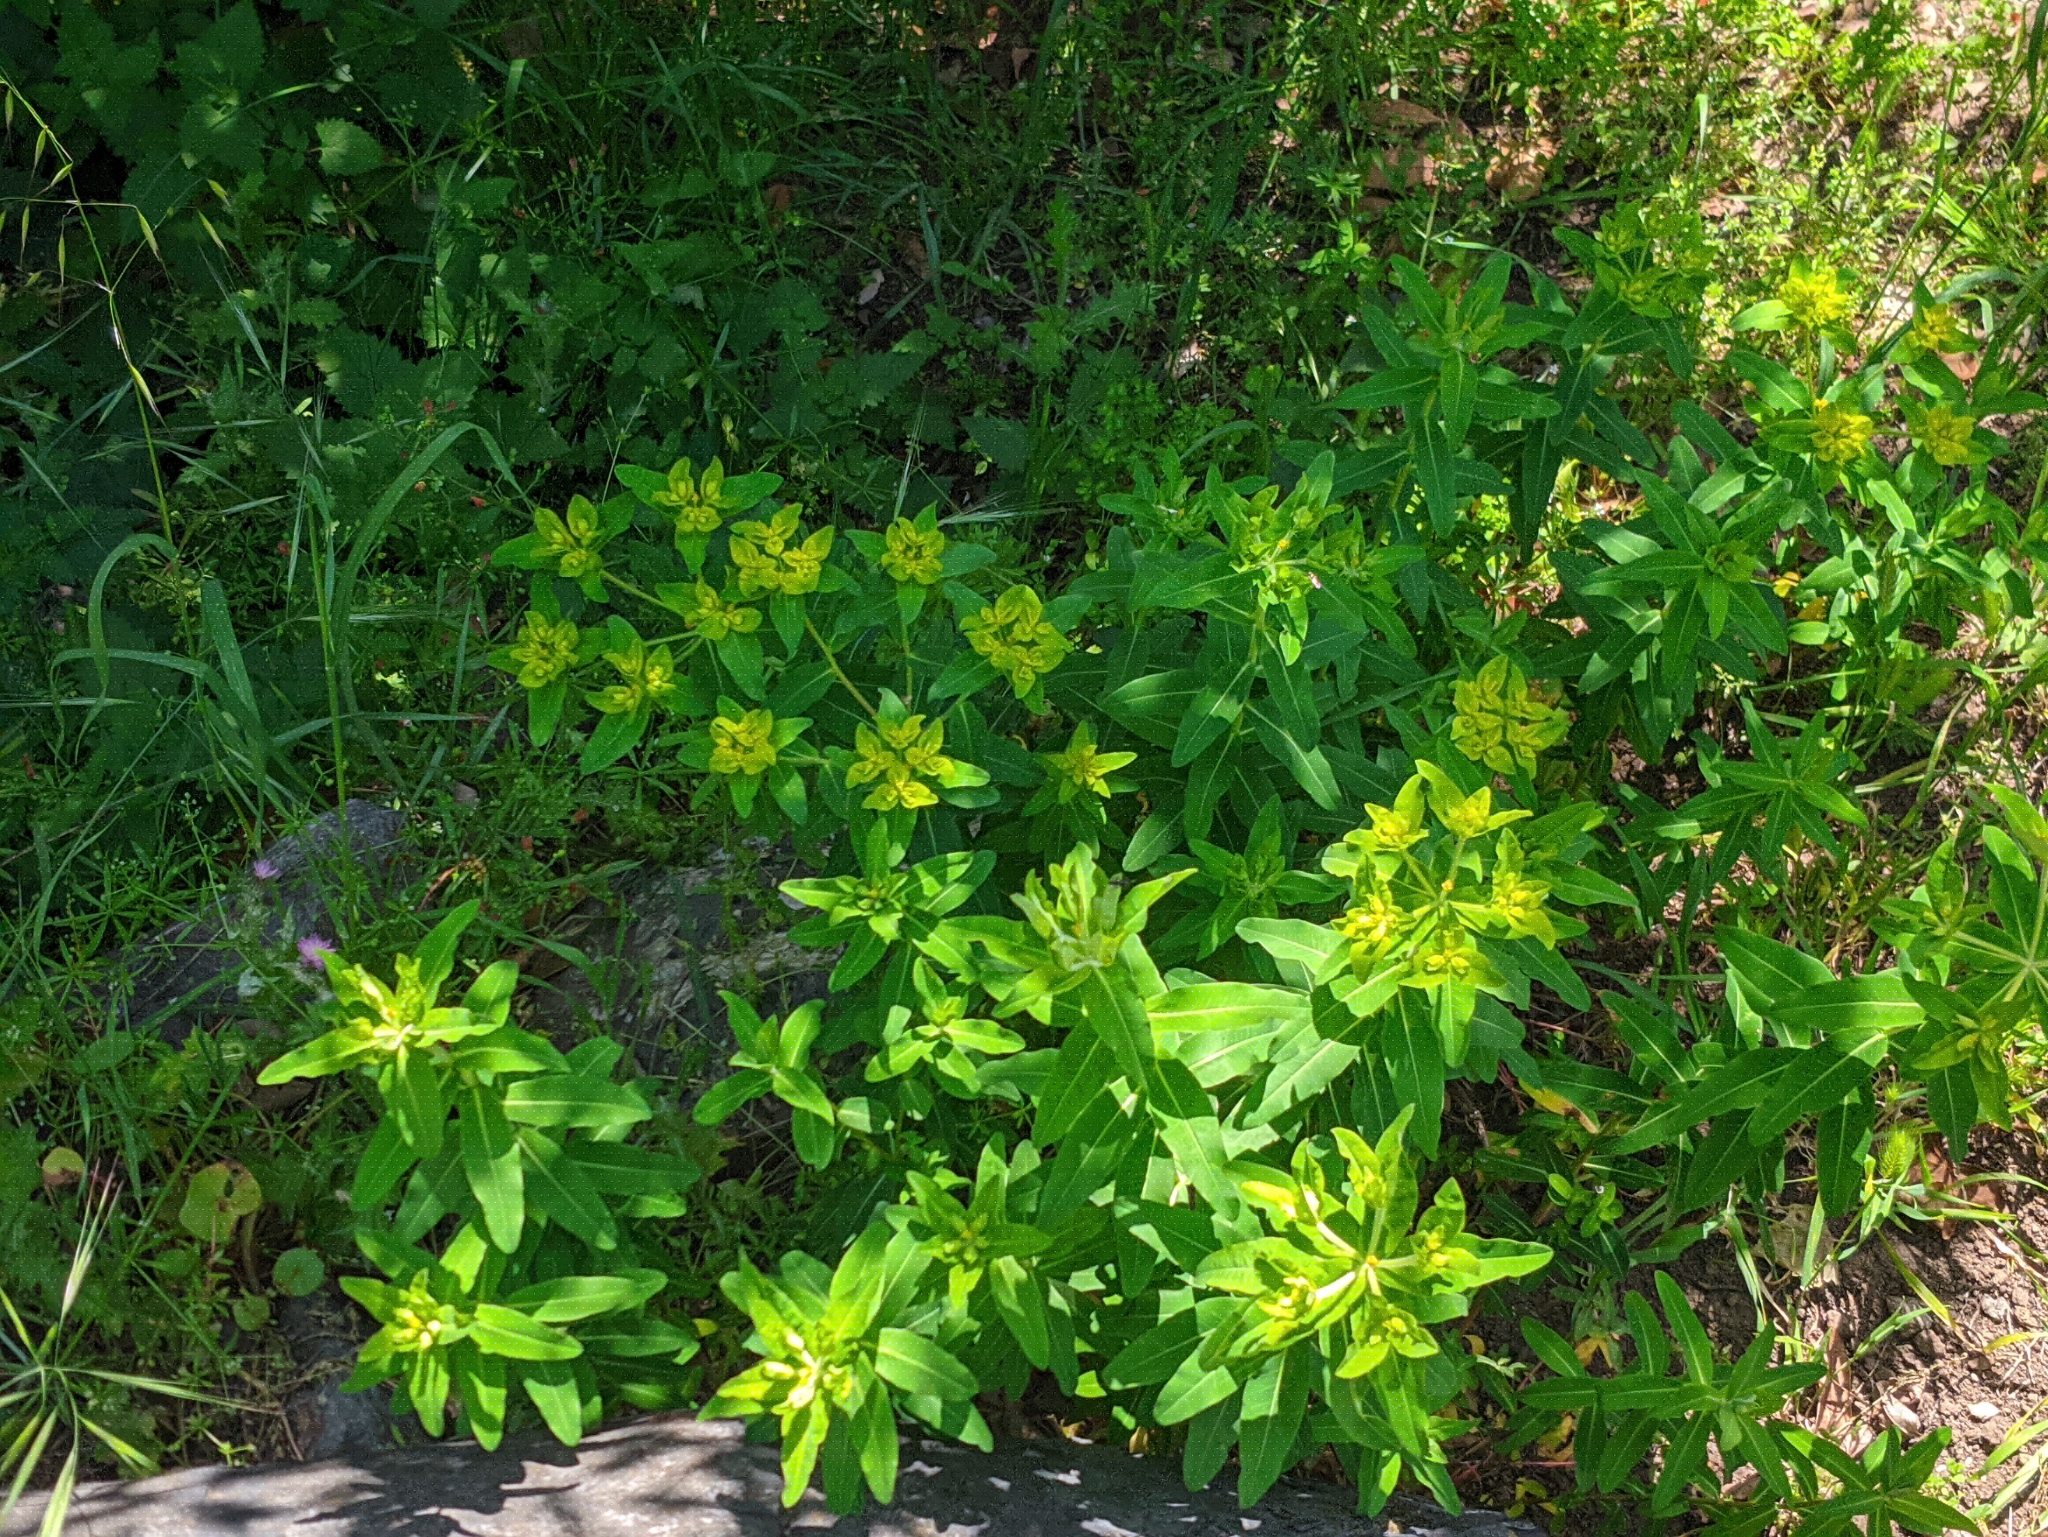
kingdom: Plantae
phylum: Tracheophyta
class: Magnoliopsida
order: Malpighiales
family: Euphorbiaceae
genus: Euphorbia
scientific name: Euphorbia oblongata
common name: Balkan spurge
